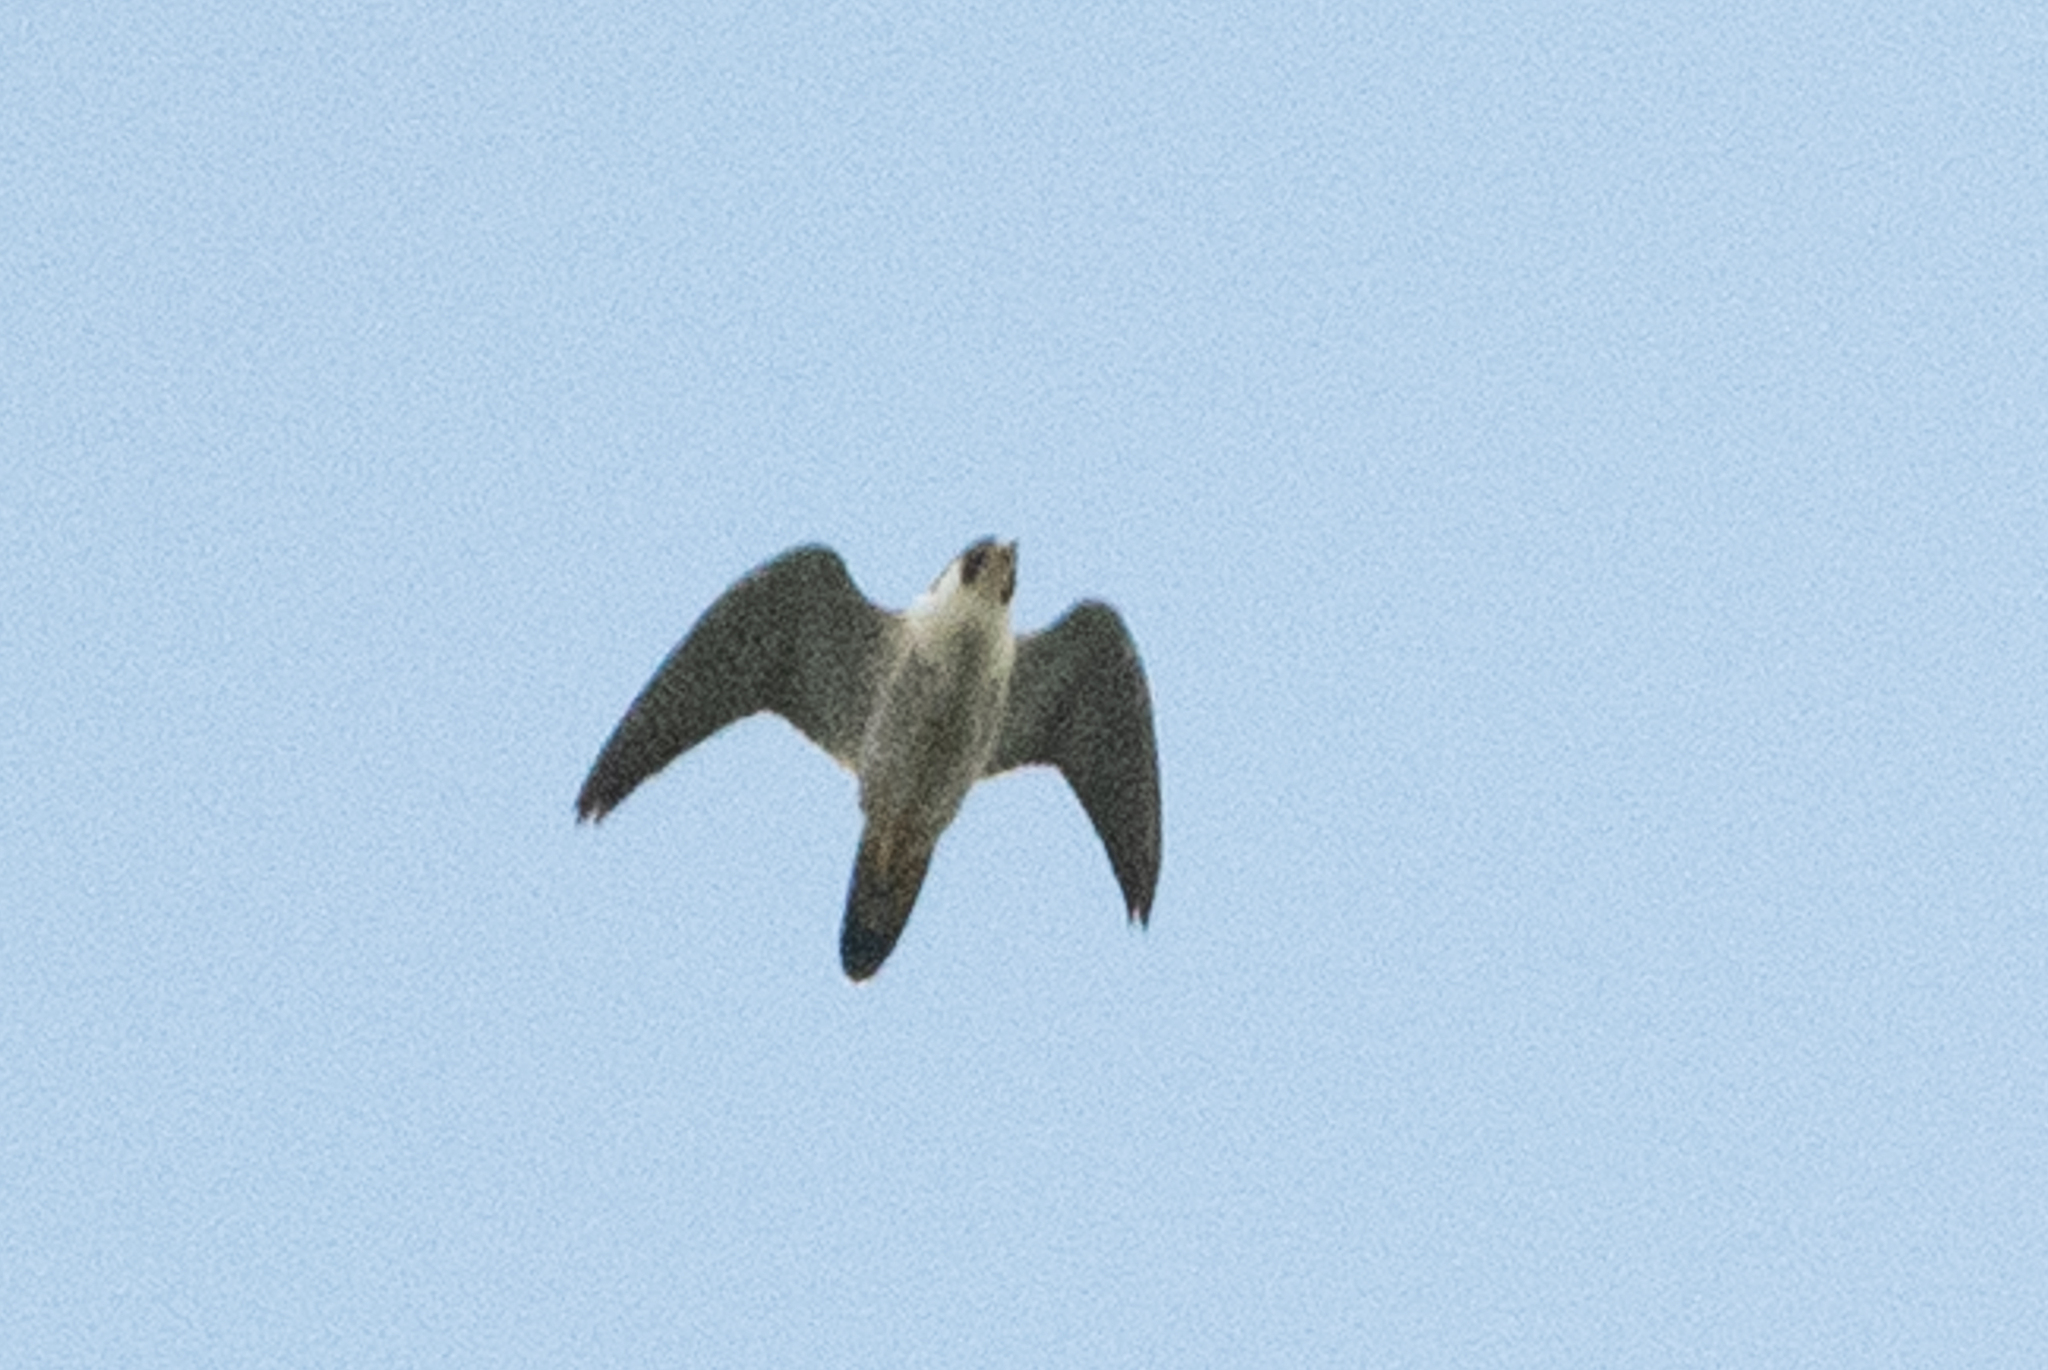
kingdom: Animalia
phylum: Chordata
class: Aves
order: Falconiformes
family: Falconidae
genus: Falco
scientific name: Falco peregrinus
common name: Peregrine falcon
